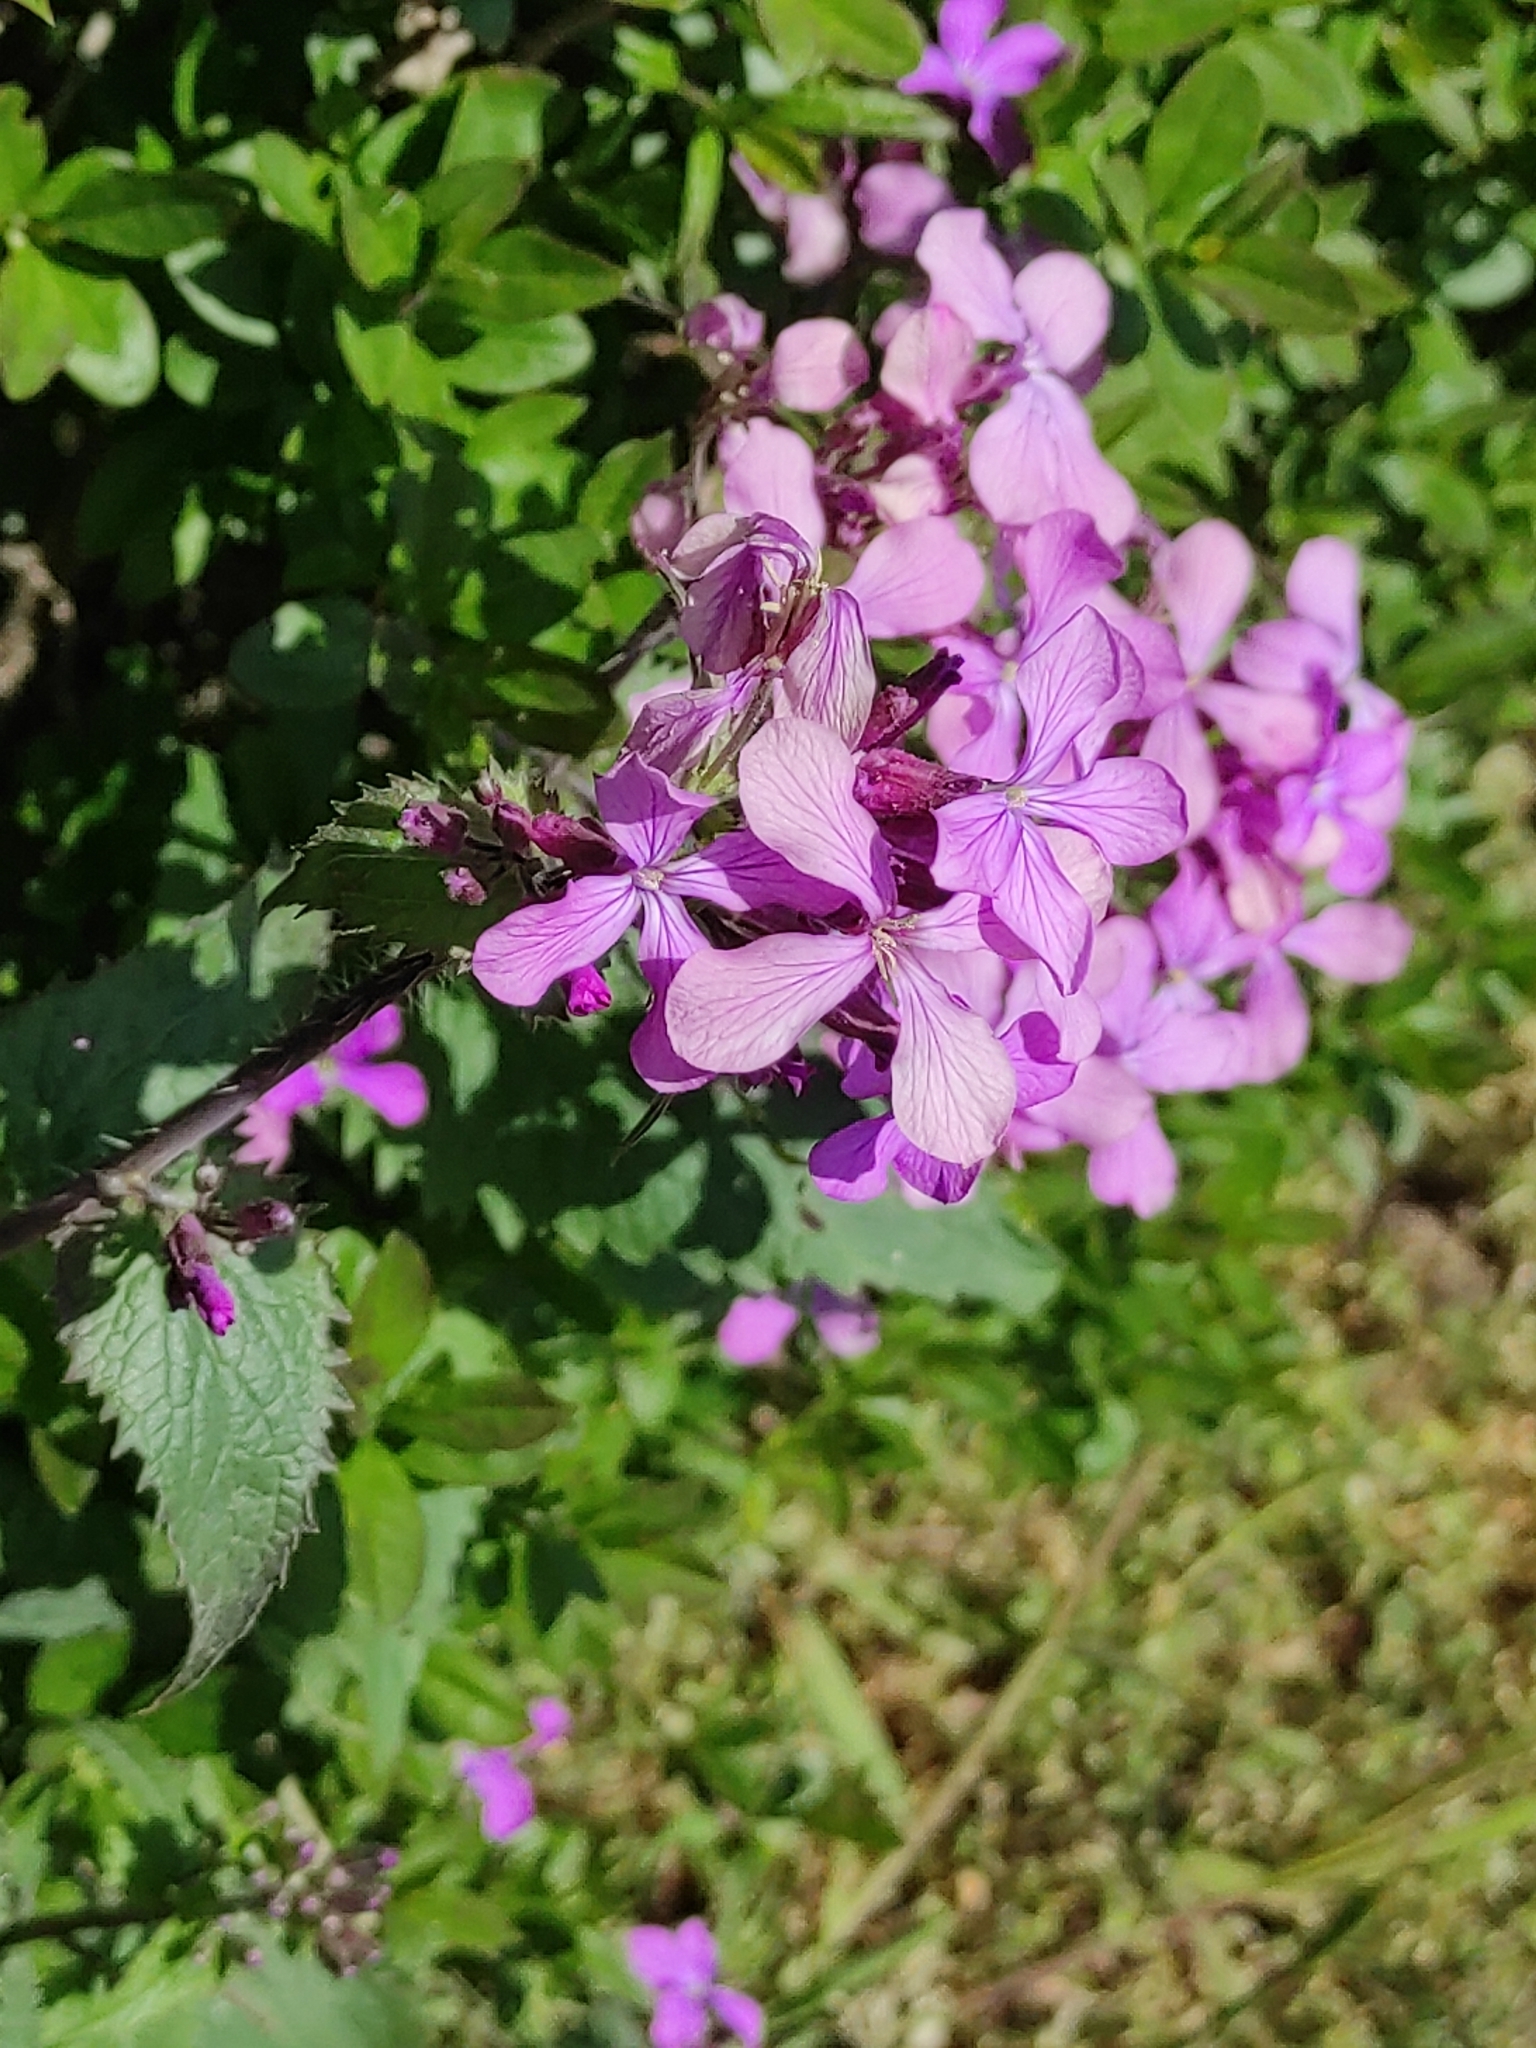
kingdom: Plantae
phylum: Tracheophyta
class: Magnoliopsida
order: Brassicales
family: Brassicaceae
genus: Lunaria
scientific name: Lunaria annua
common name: Honesty
